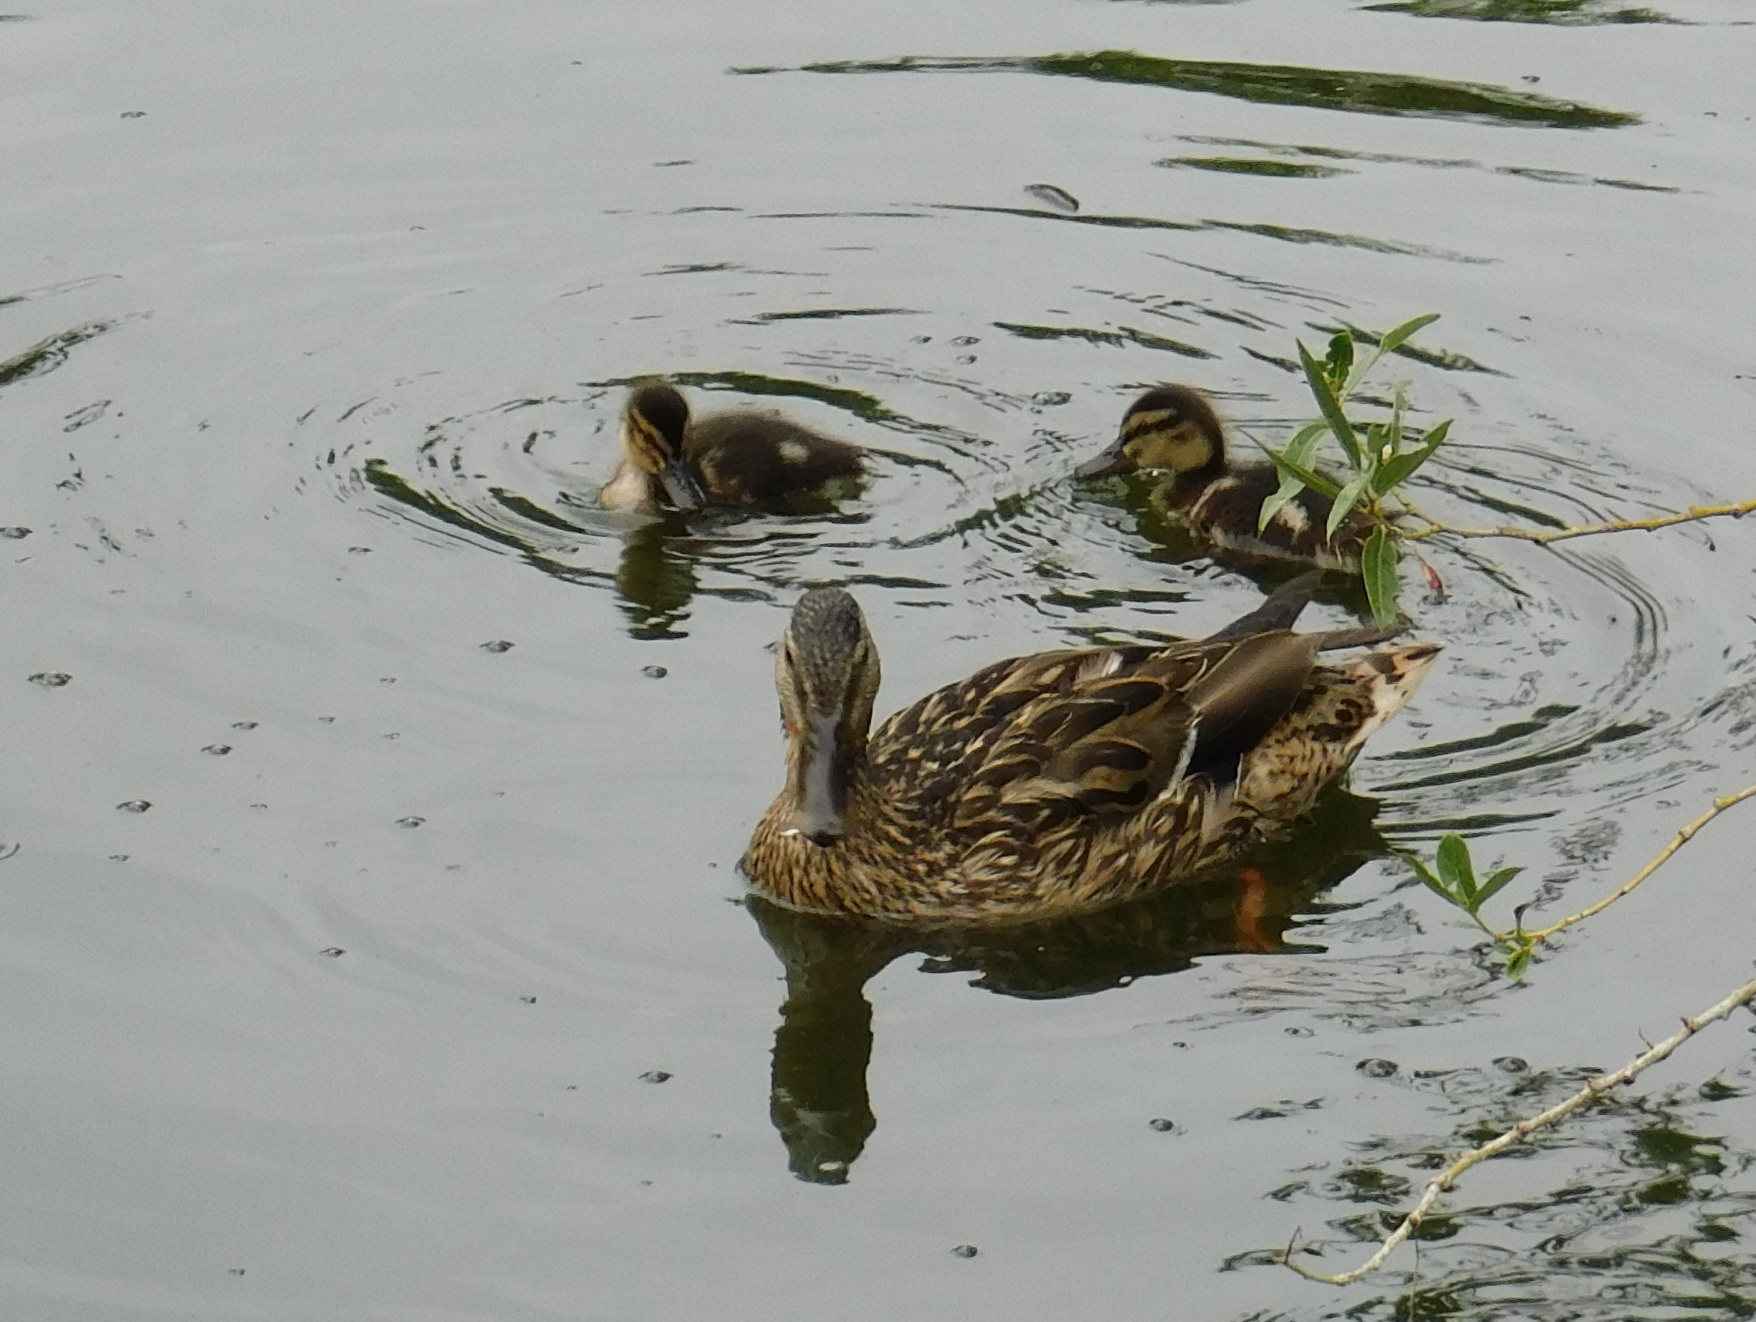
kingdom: Animalia
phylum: Chordata
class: Aves
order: Anseriformes
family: Anatidae
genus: Anas
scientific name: Anas platyrhynchos
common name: Mallard
